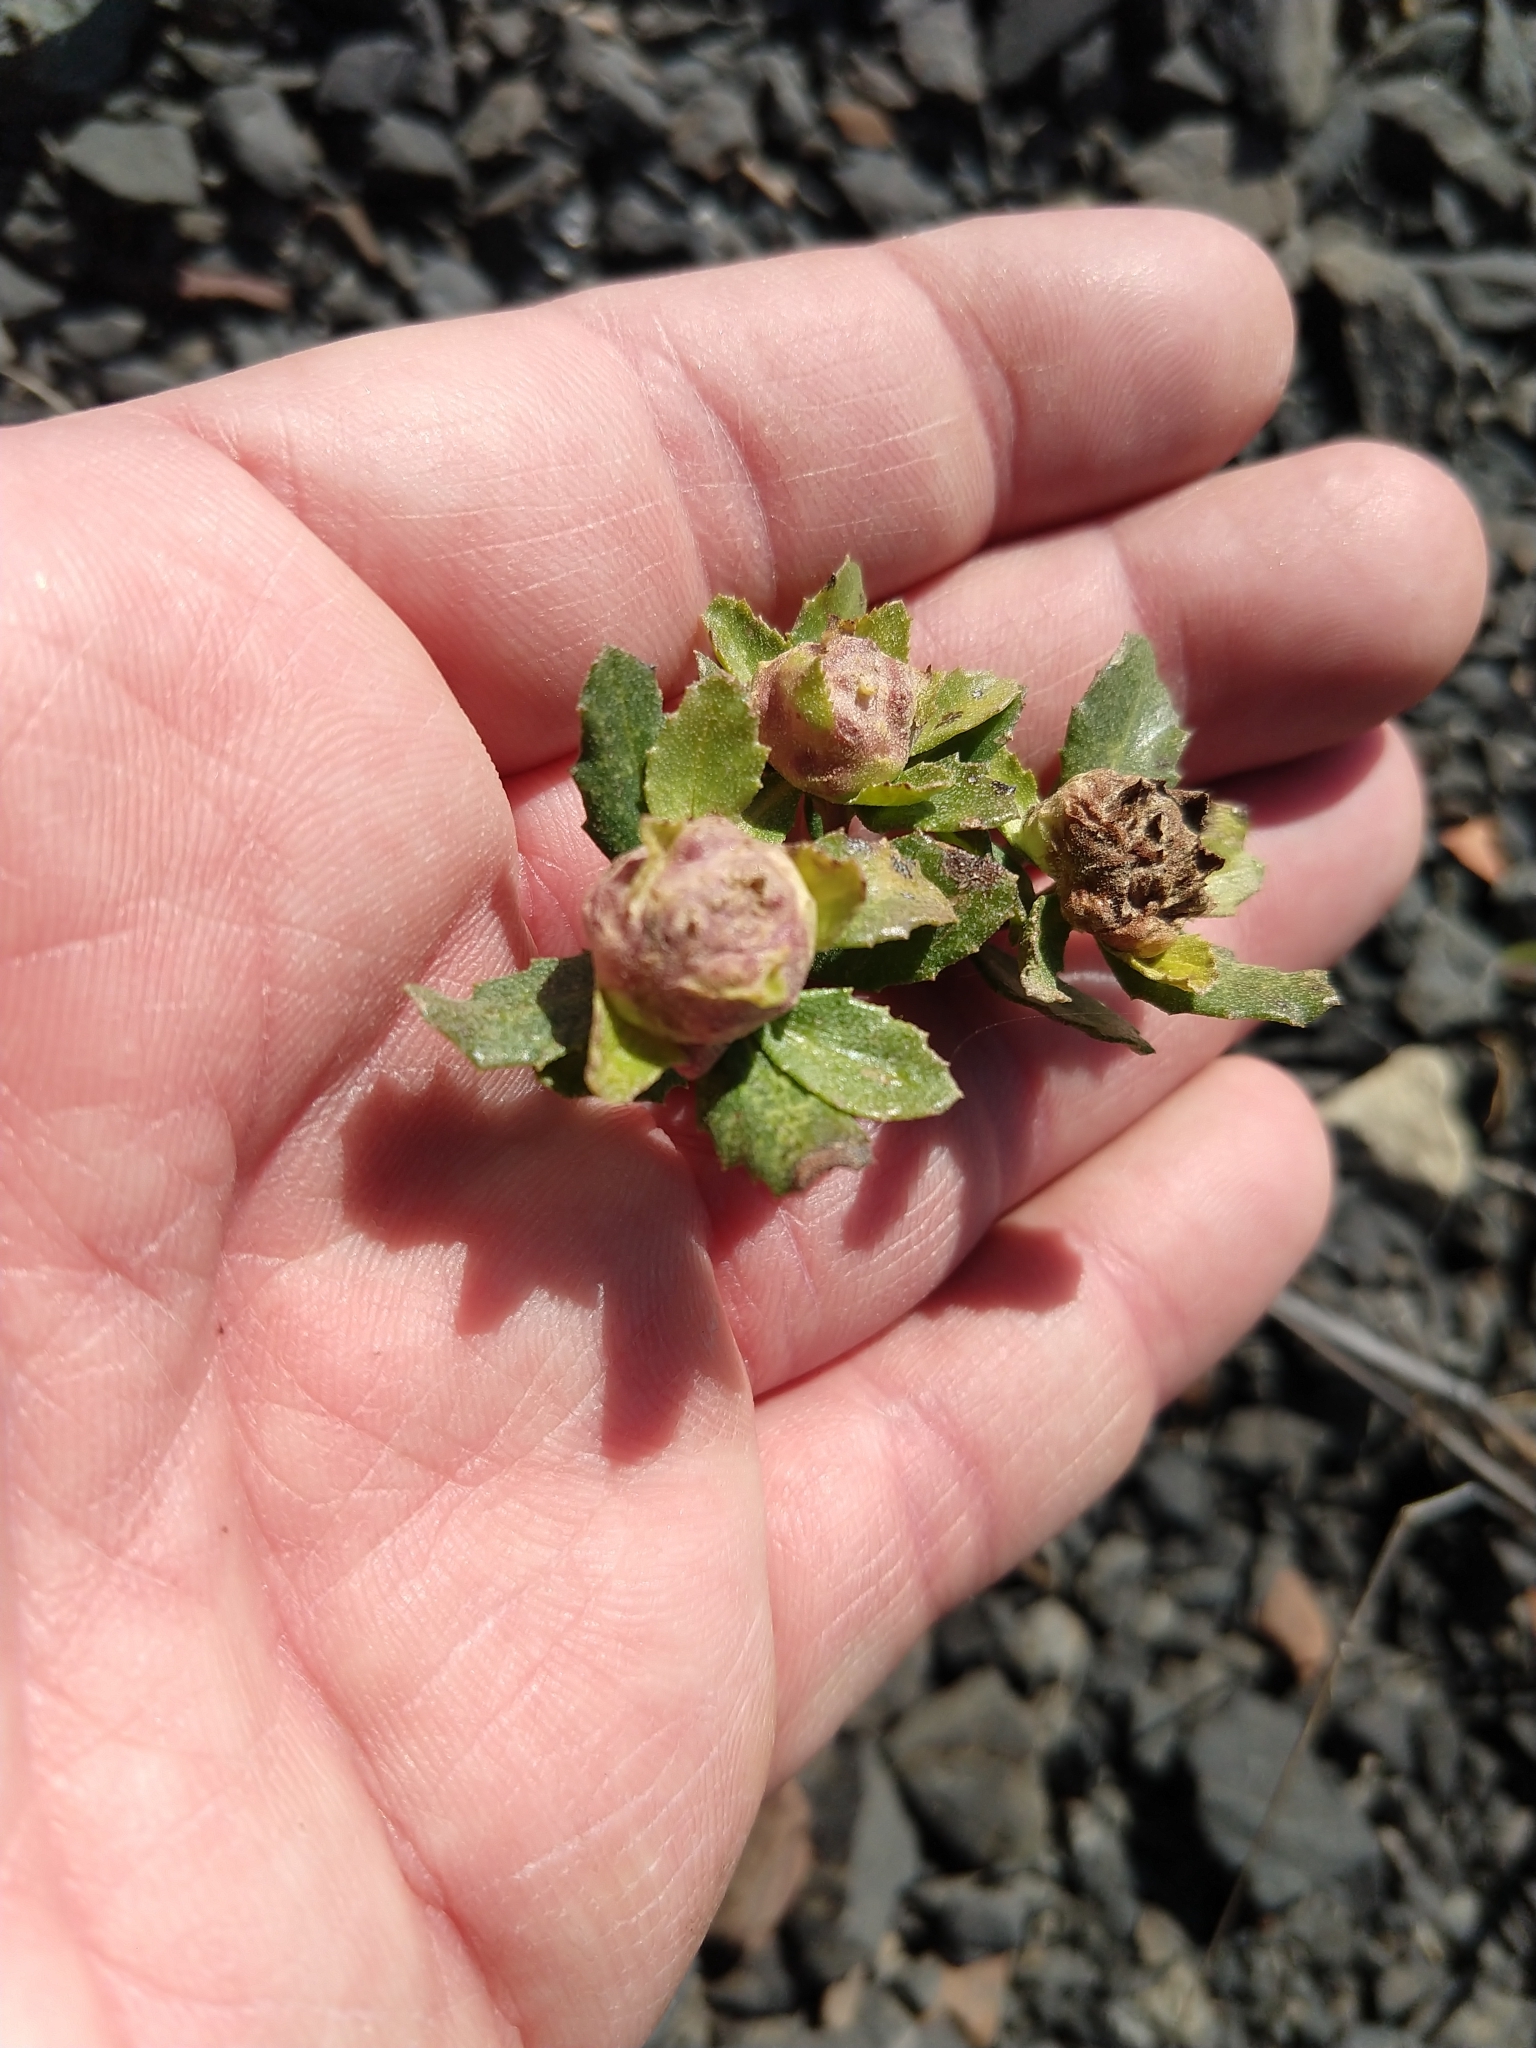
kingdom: Animalia
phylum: Arthropoda
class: Insecta
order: Diptera
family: Cecidomyiidae
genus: Rhopalomyia
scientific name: Rhopalomyia californica
